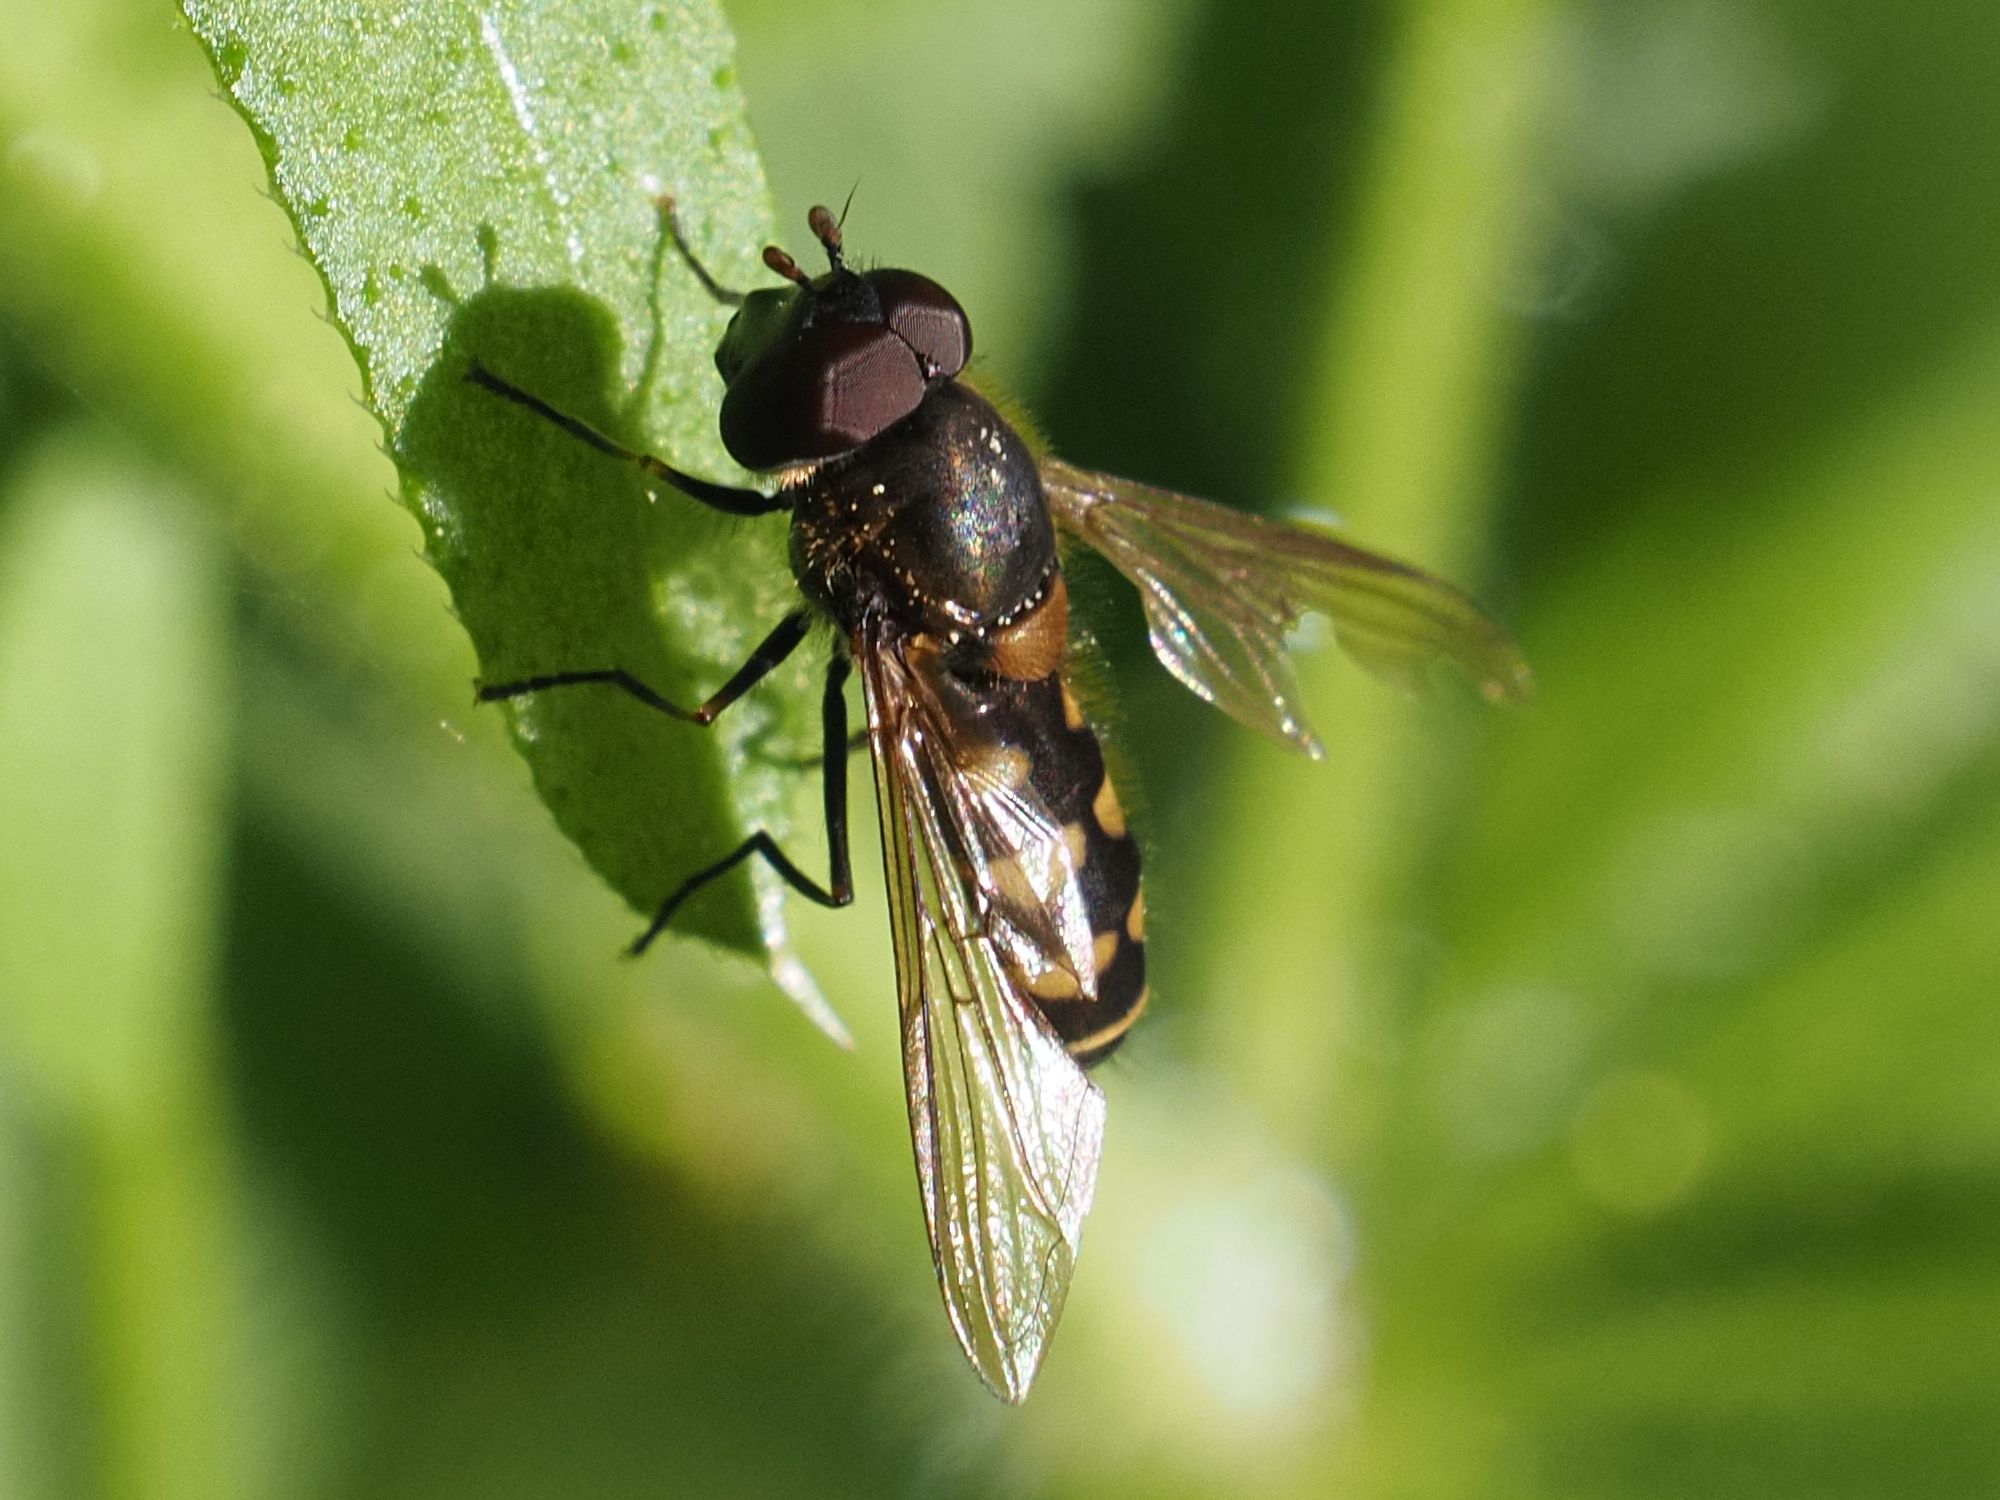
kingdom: Animalia
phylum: Arthropoda
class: Insecta
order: Diptera
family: Syrphidae
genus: Parasyrphus
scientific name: Parasyrphus punctulatus
